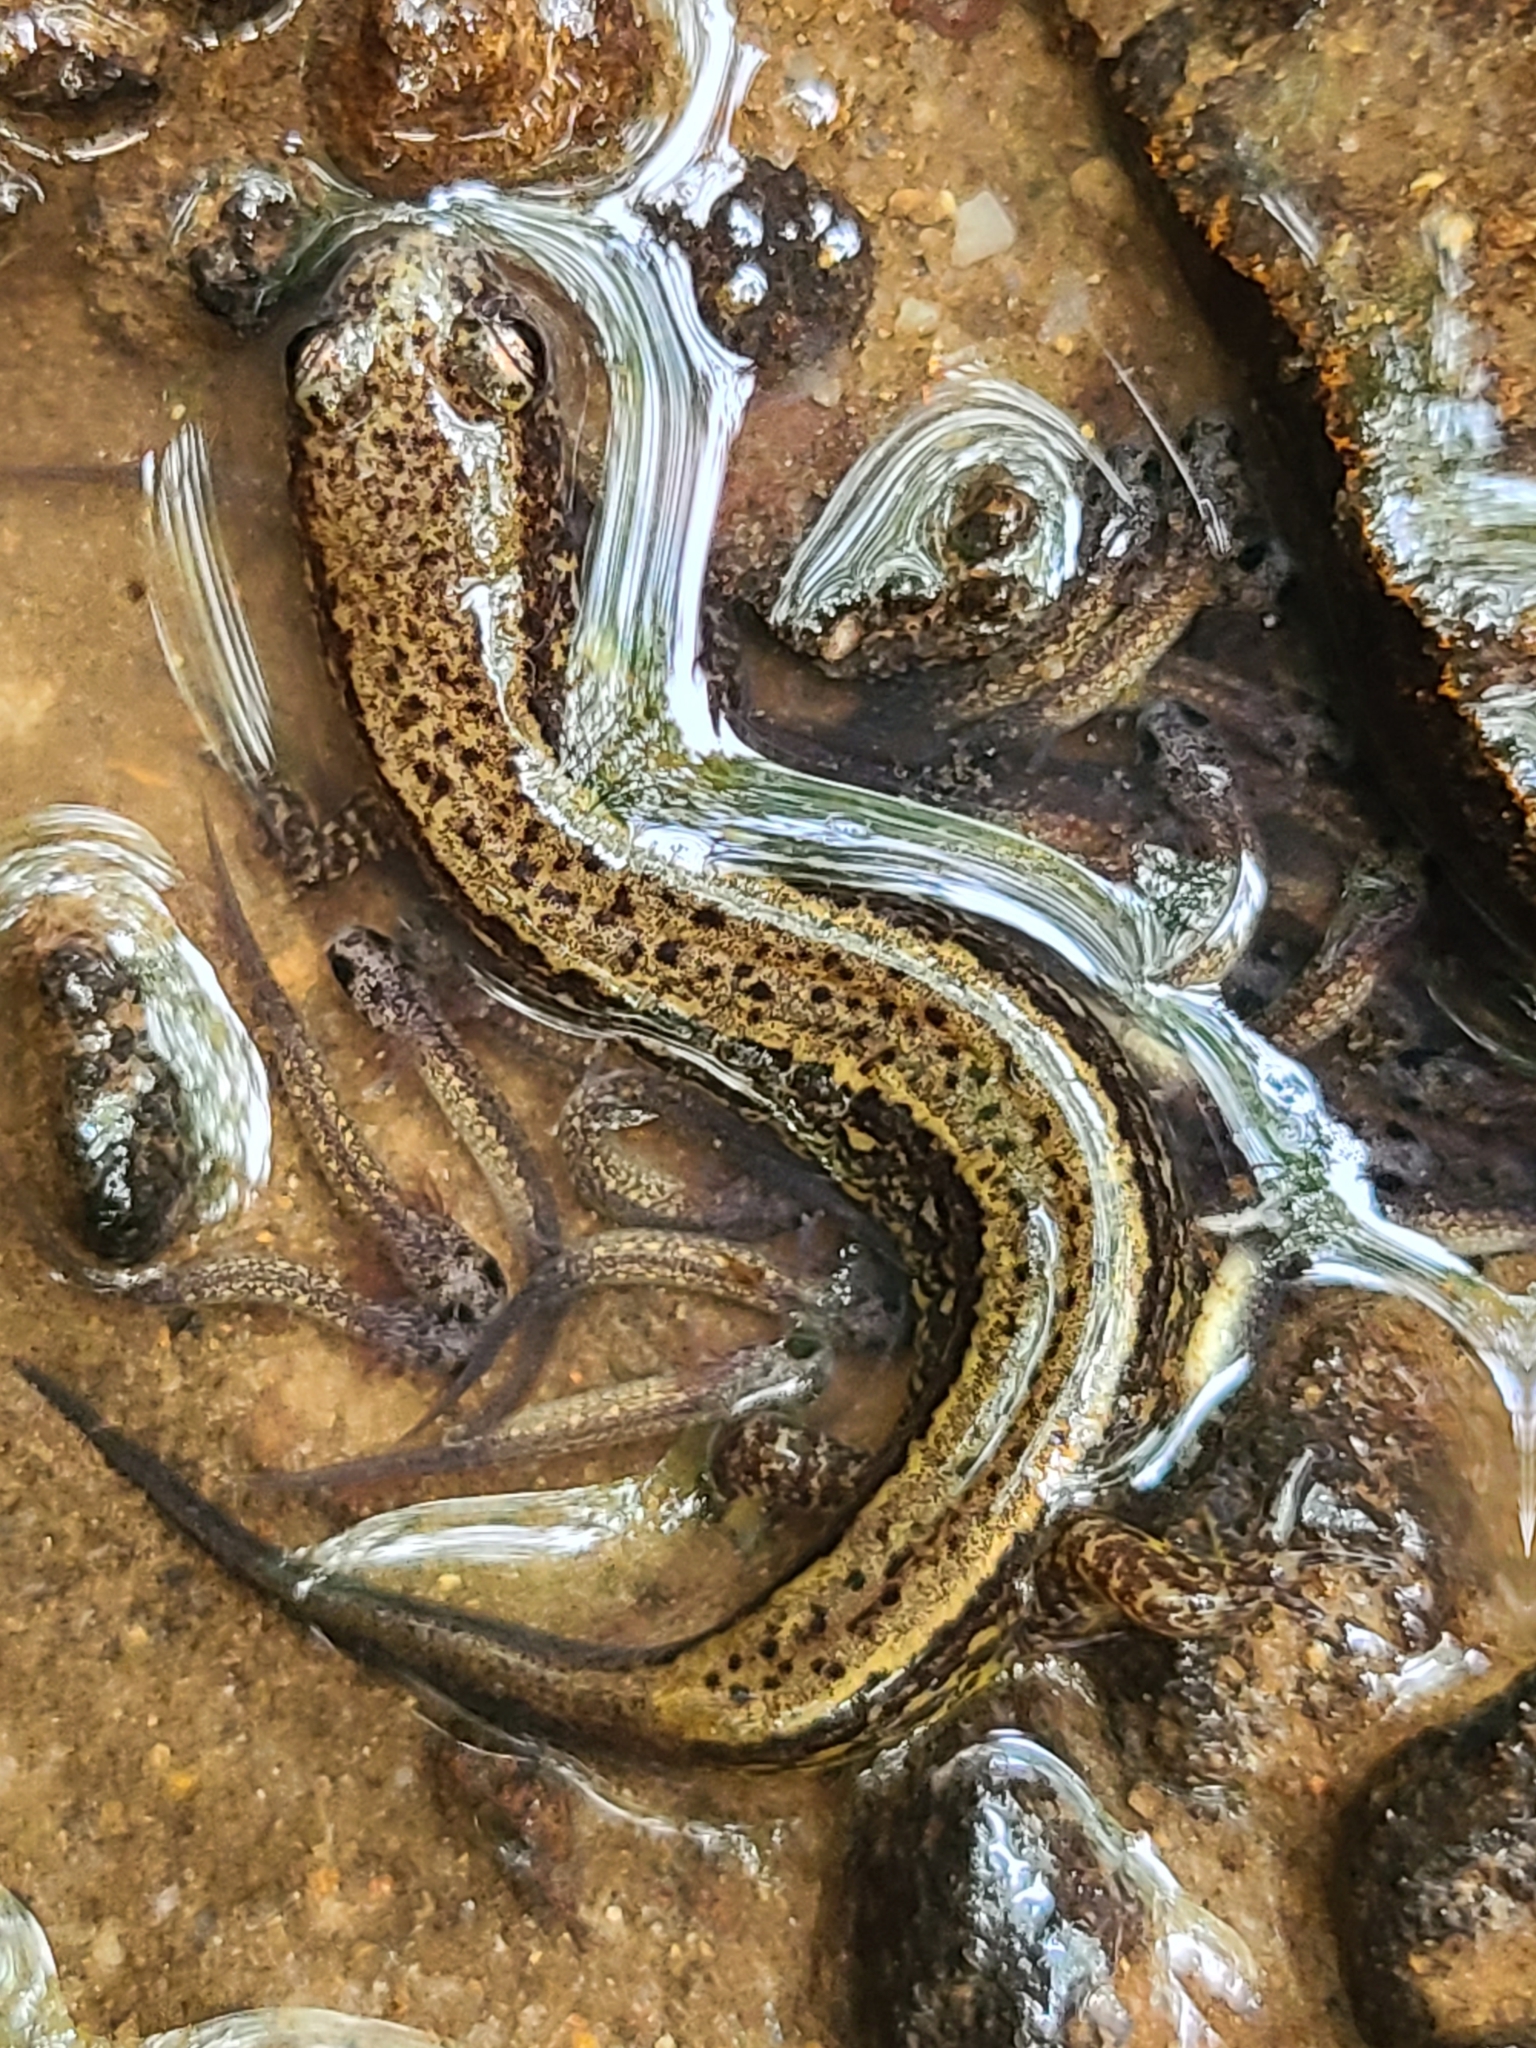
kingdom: Animalia
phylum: Chordata
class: Amphibia
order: Caudata
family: Plethodontidae
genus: Eurycea
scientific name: Eurycea cirrigera
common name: Southern two-lined salamander
